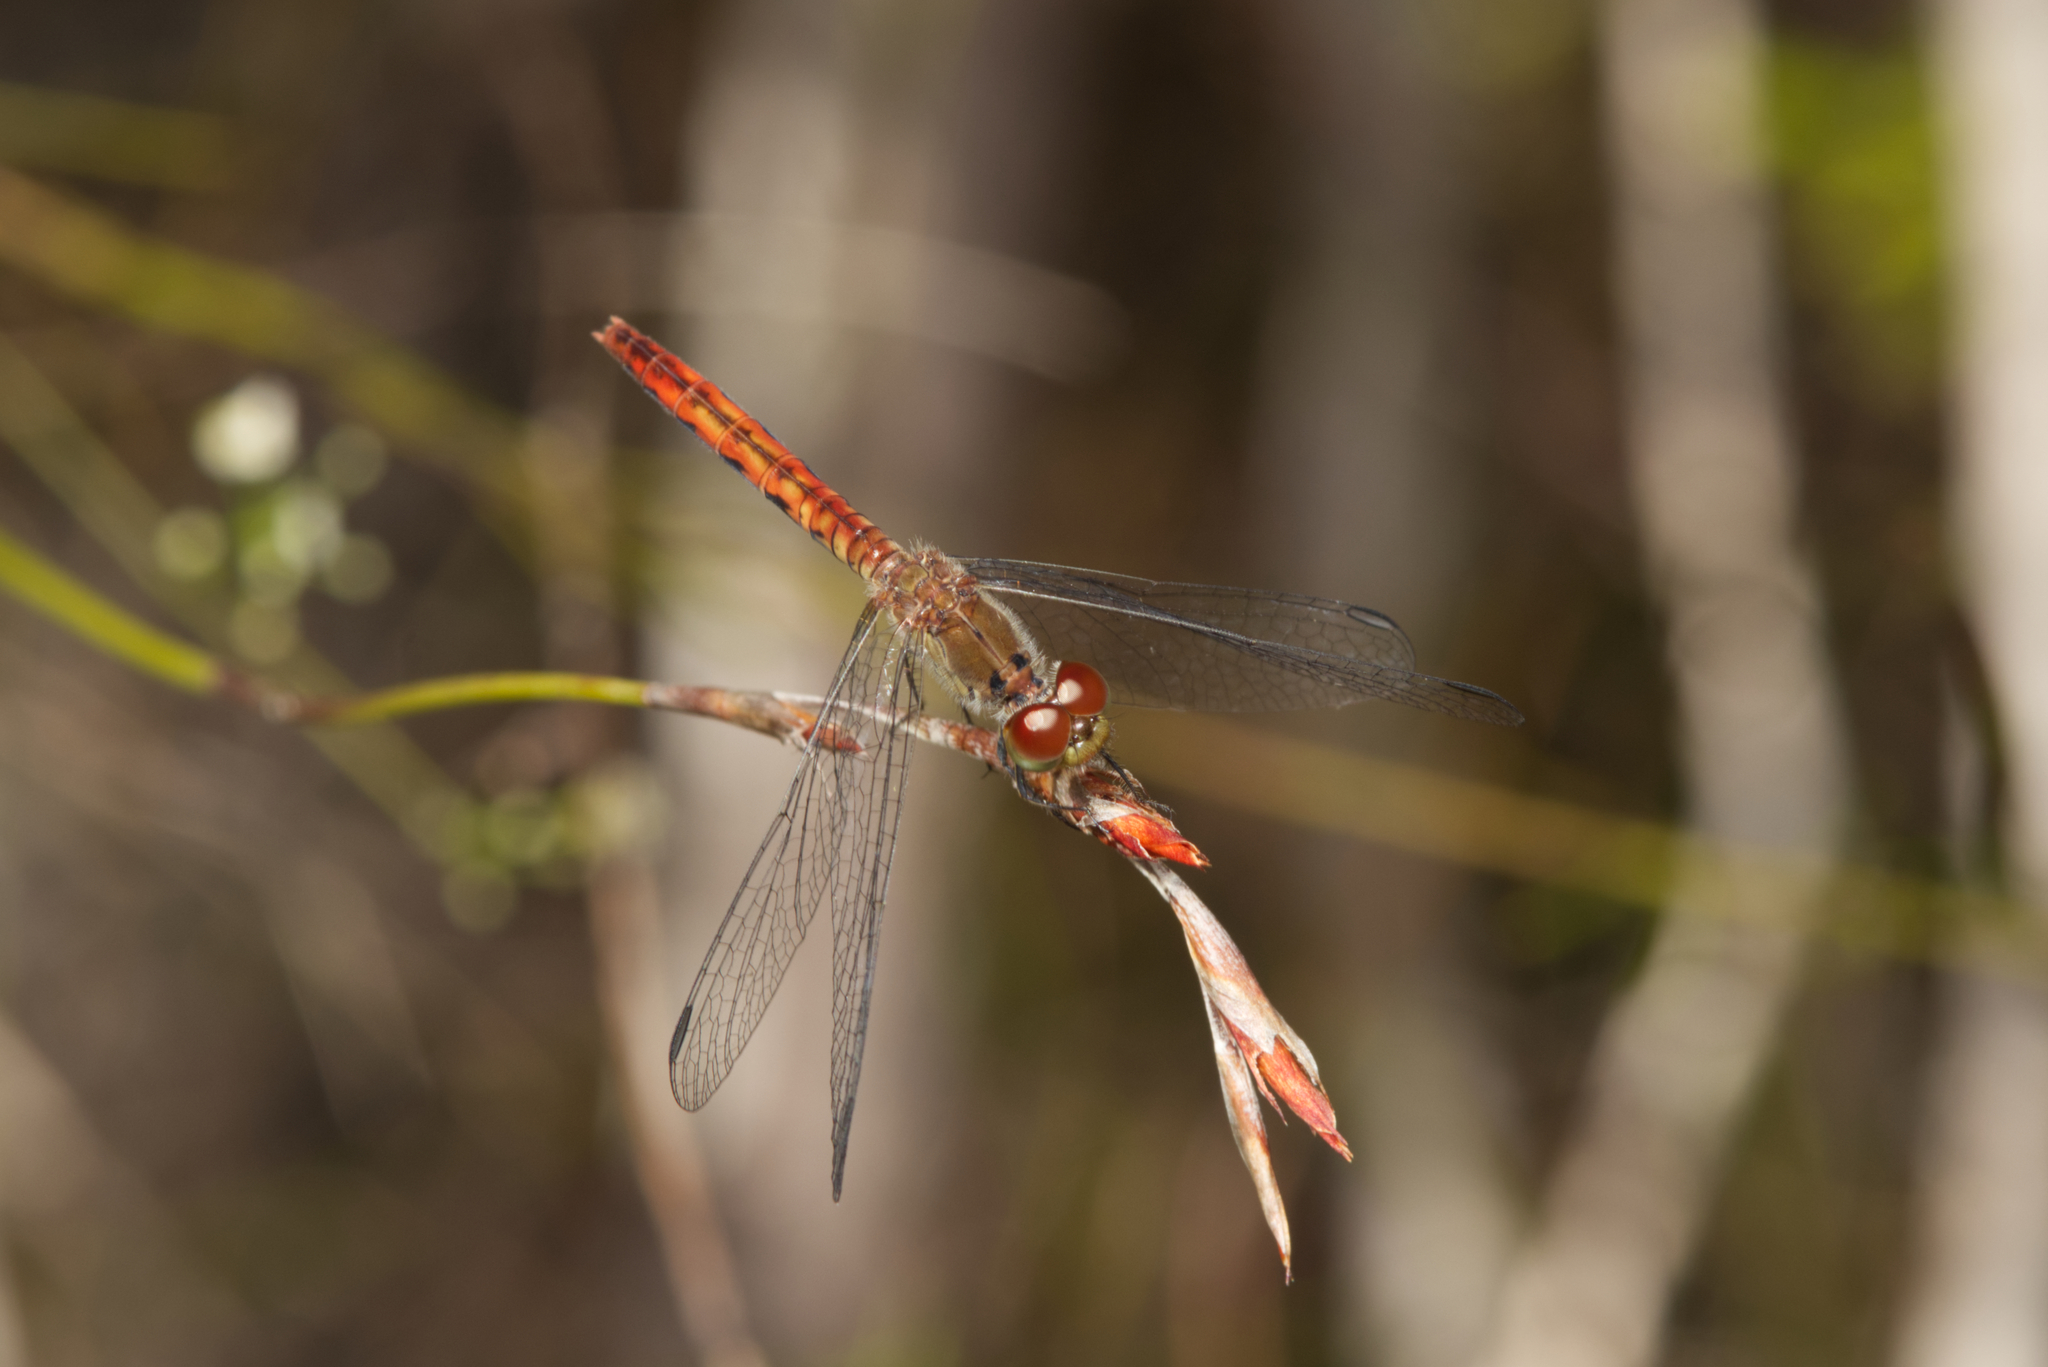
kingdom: Animalia
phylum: Arthropoda
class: Insecta
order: Odonata
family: Libellulidae
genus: Nannodiplax
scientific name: Nannodiplax rubra
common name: Pygmy percher
